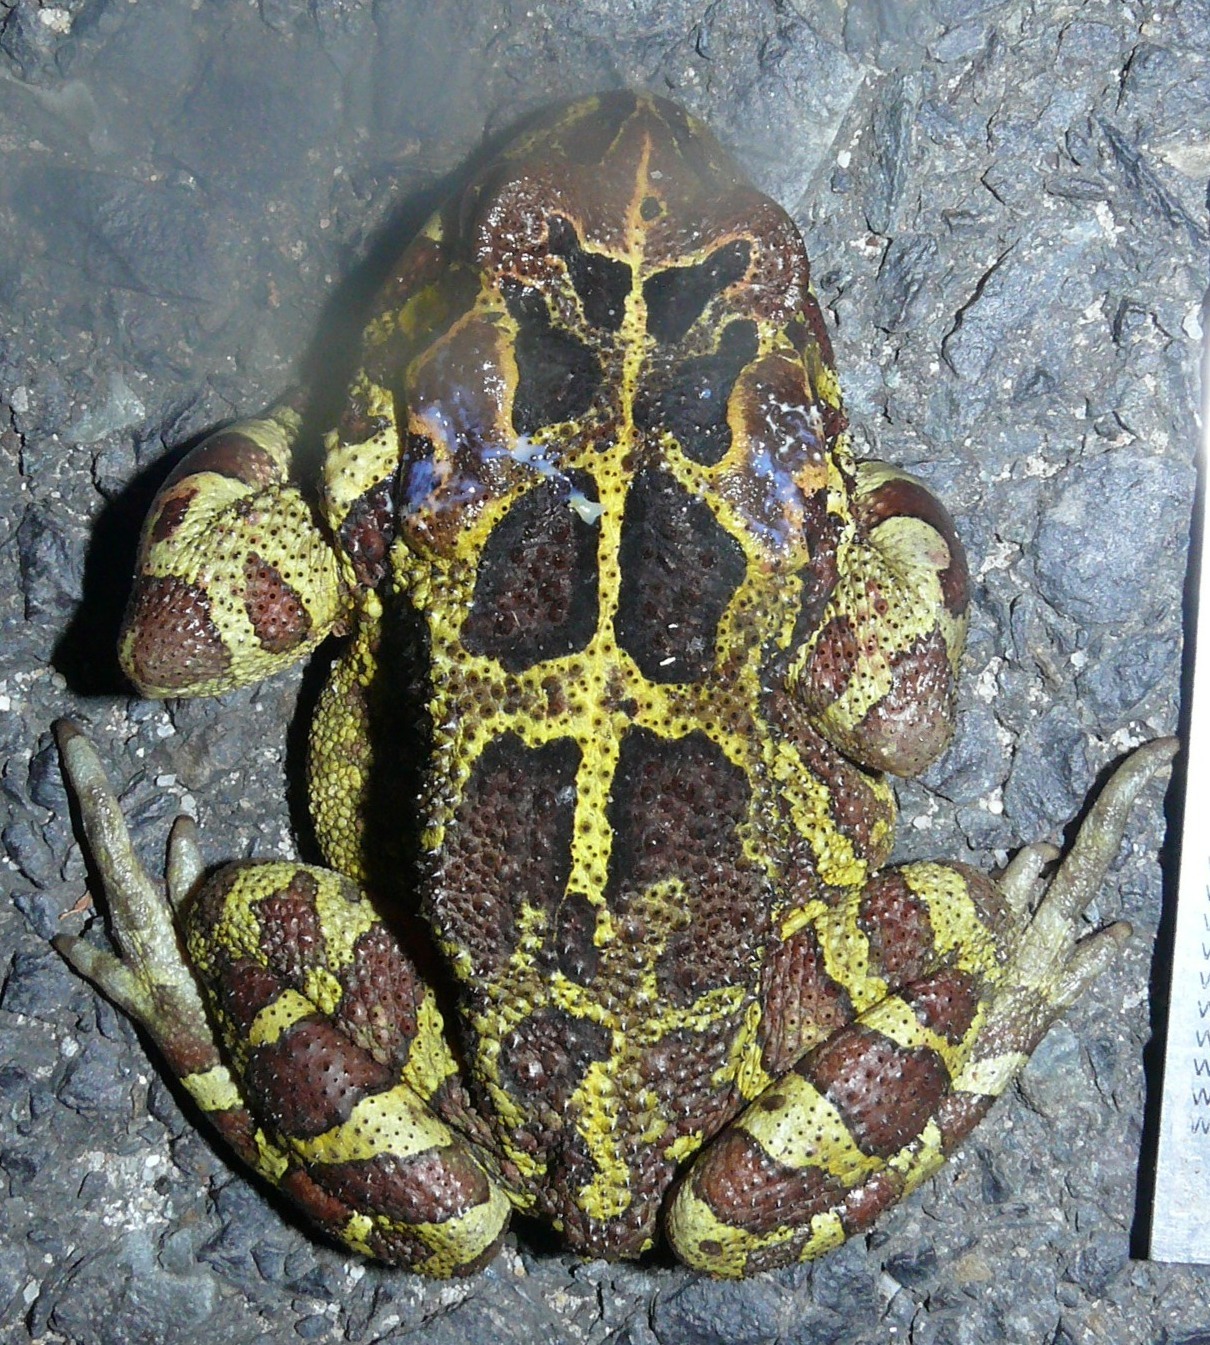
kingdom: Animalia
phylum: Chordata
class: Amphibia
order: Anura
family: Bufonidae
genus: Sclerophrys
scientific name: Sclerophrys pantherina
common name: Panther toad
